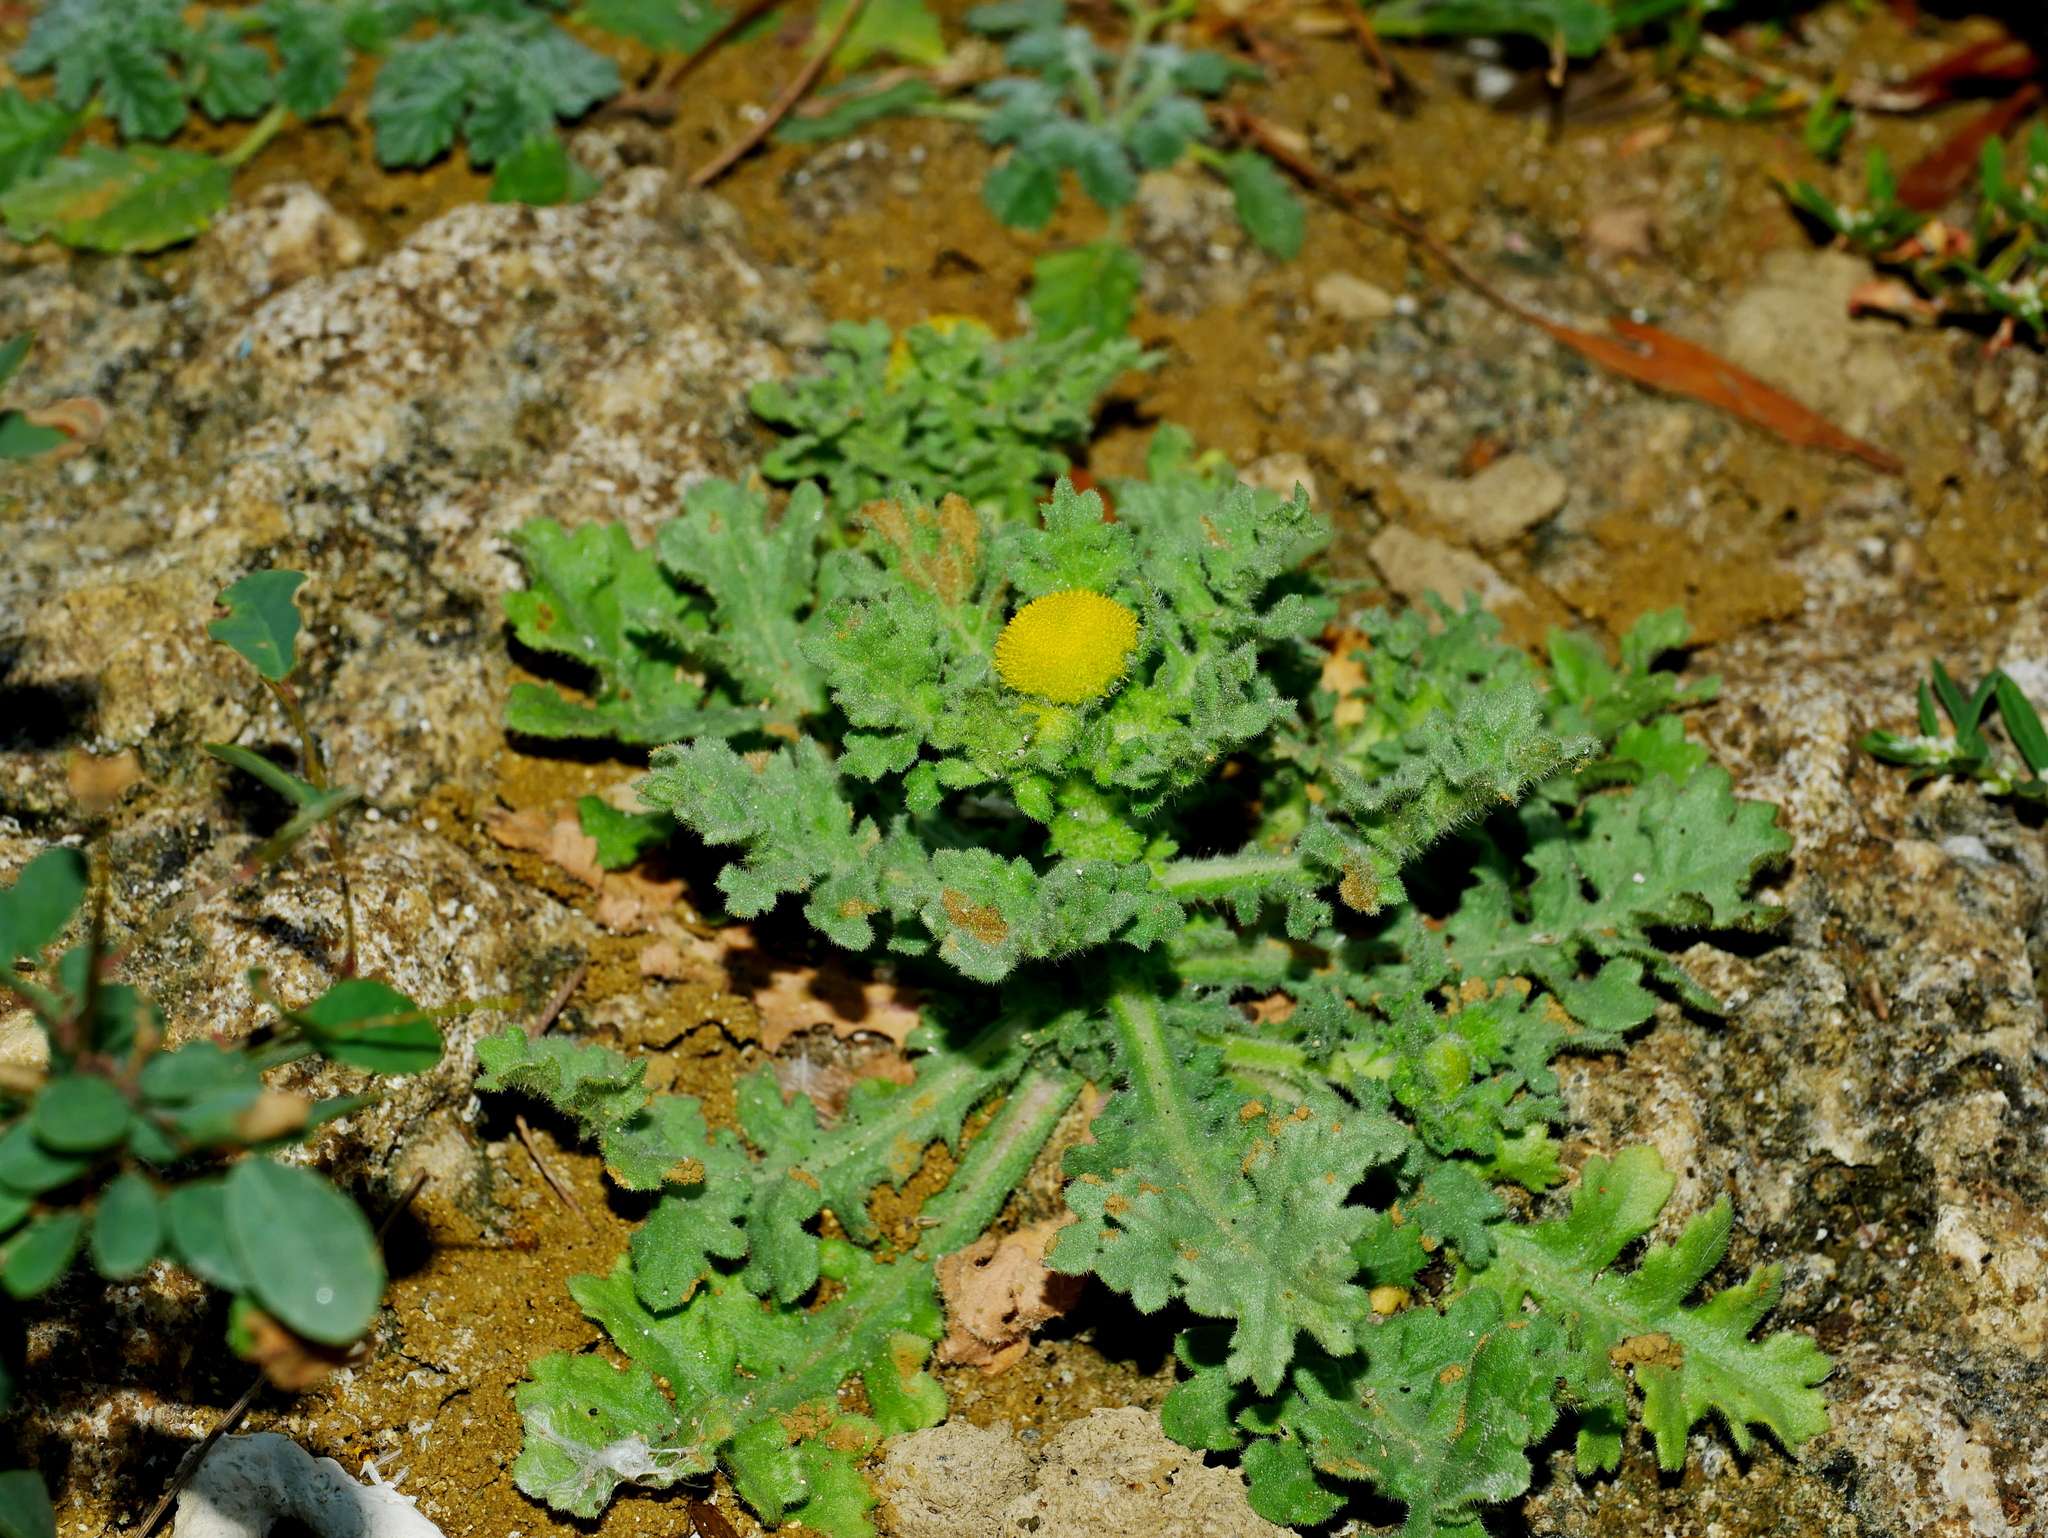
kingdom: Plantae
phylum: Tracheophyta
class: Magnoliopsida
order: Asterales
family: Asteraceae
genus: Grangea
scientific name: Grangea maderaspatana
